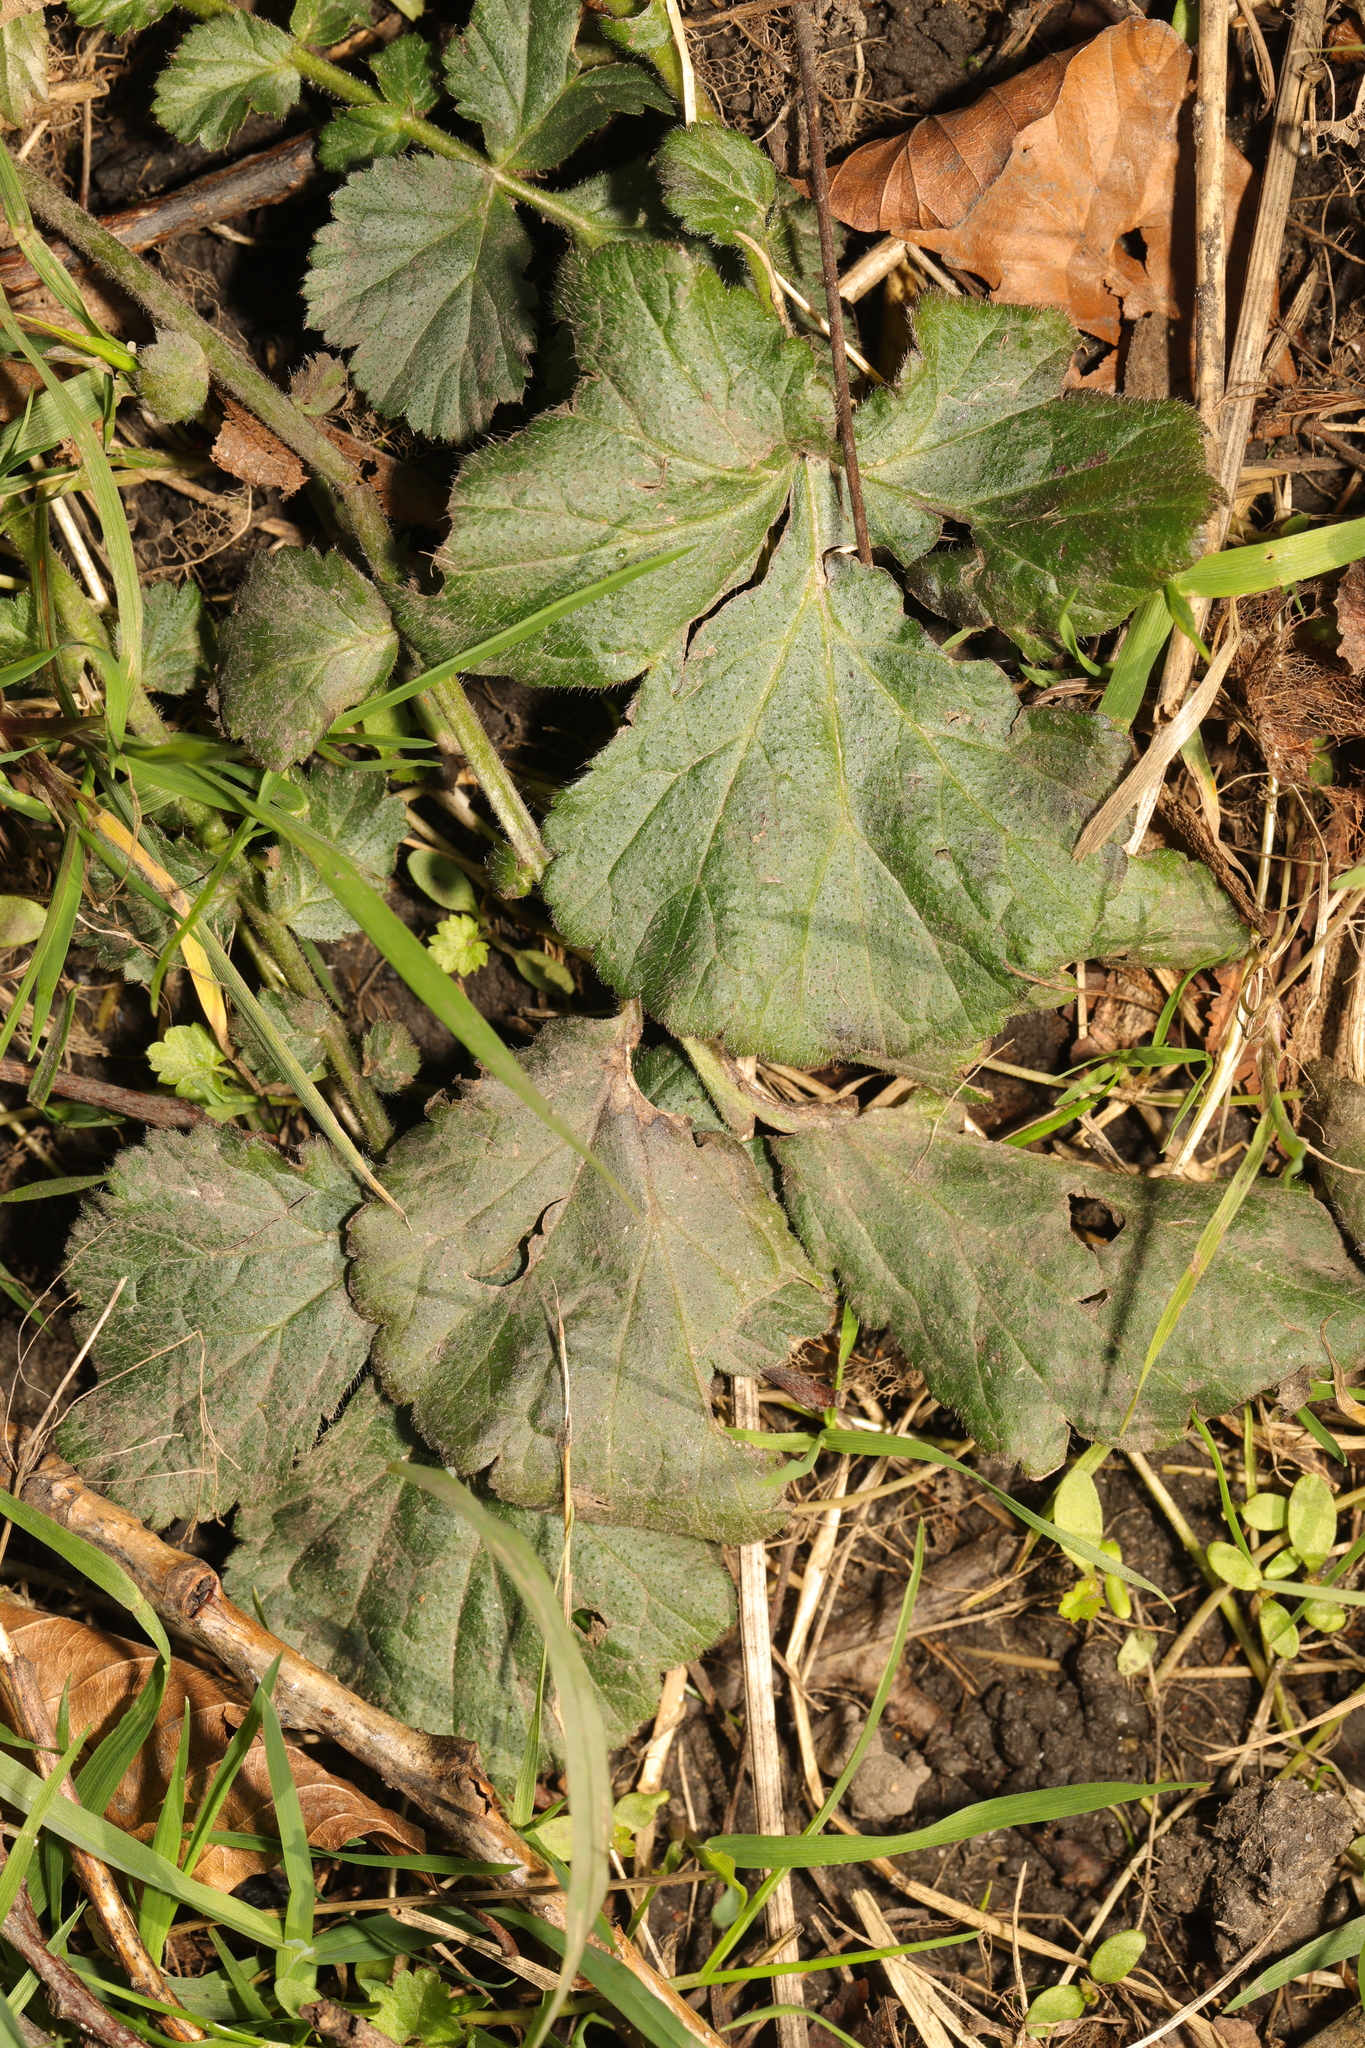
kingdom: Plantae
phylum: Tracheophyta
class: Magnoliopsida
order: Rosales
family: Rosaceae
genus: Geum
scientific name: Geum urbanum
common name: Wood avens
